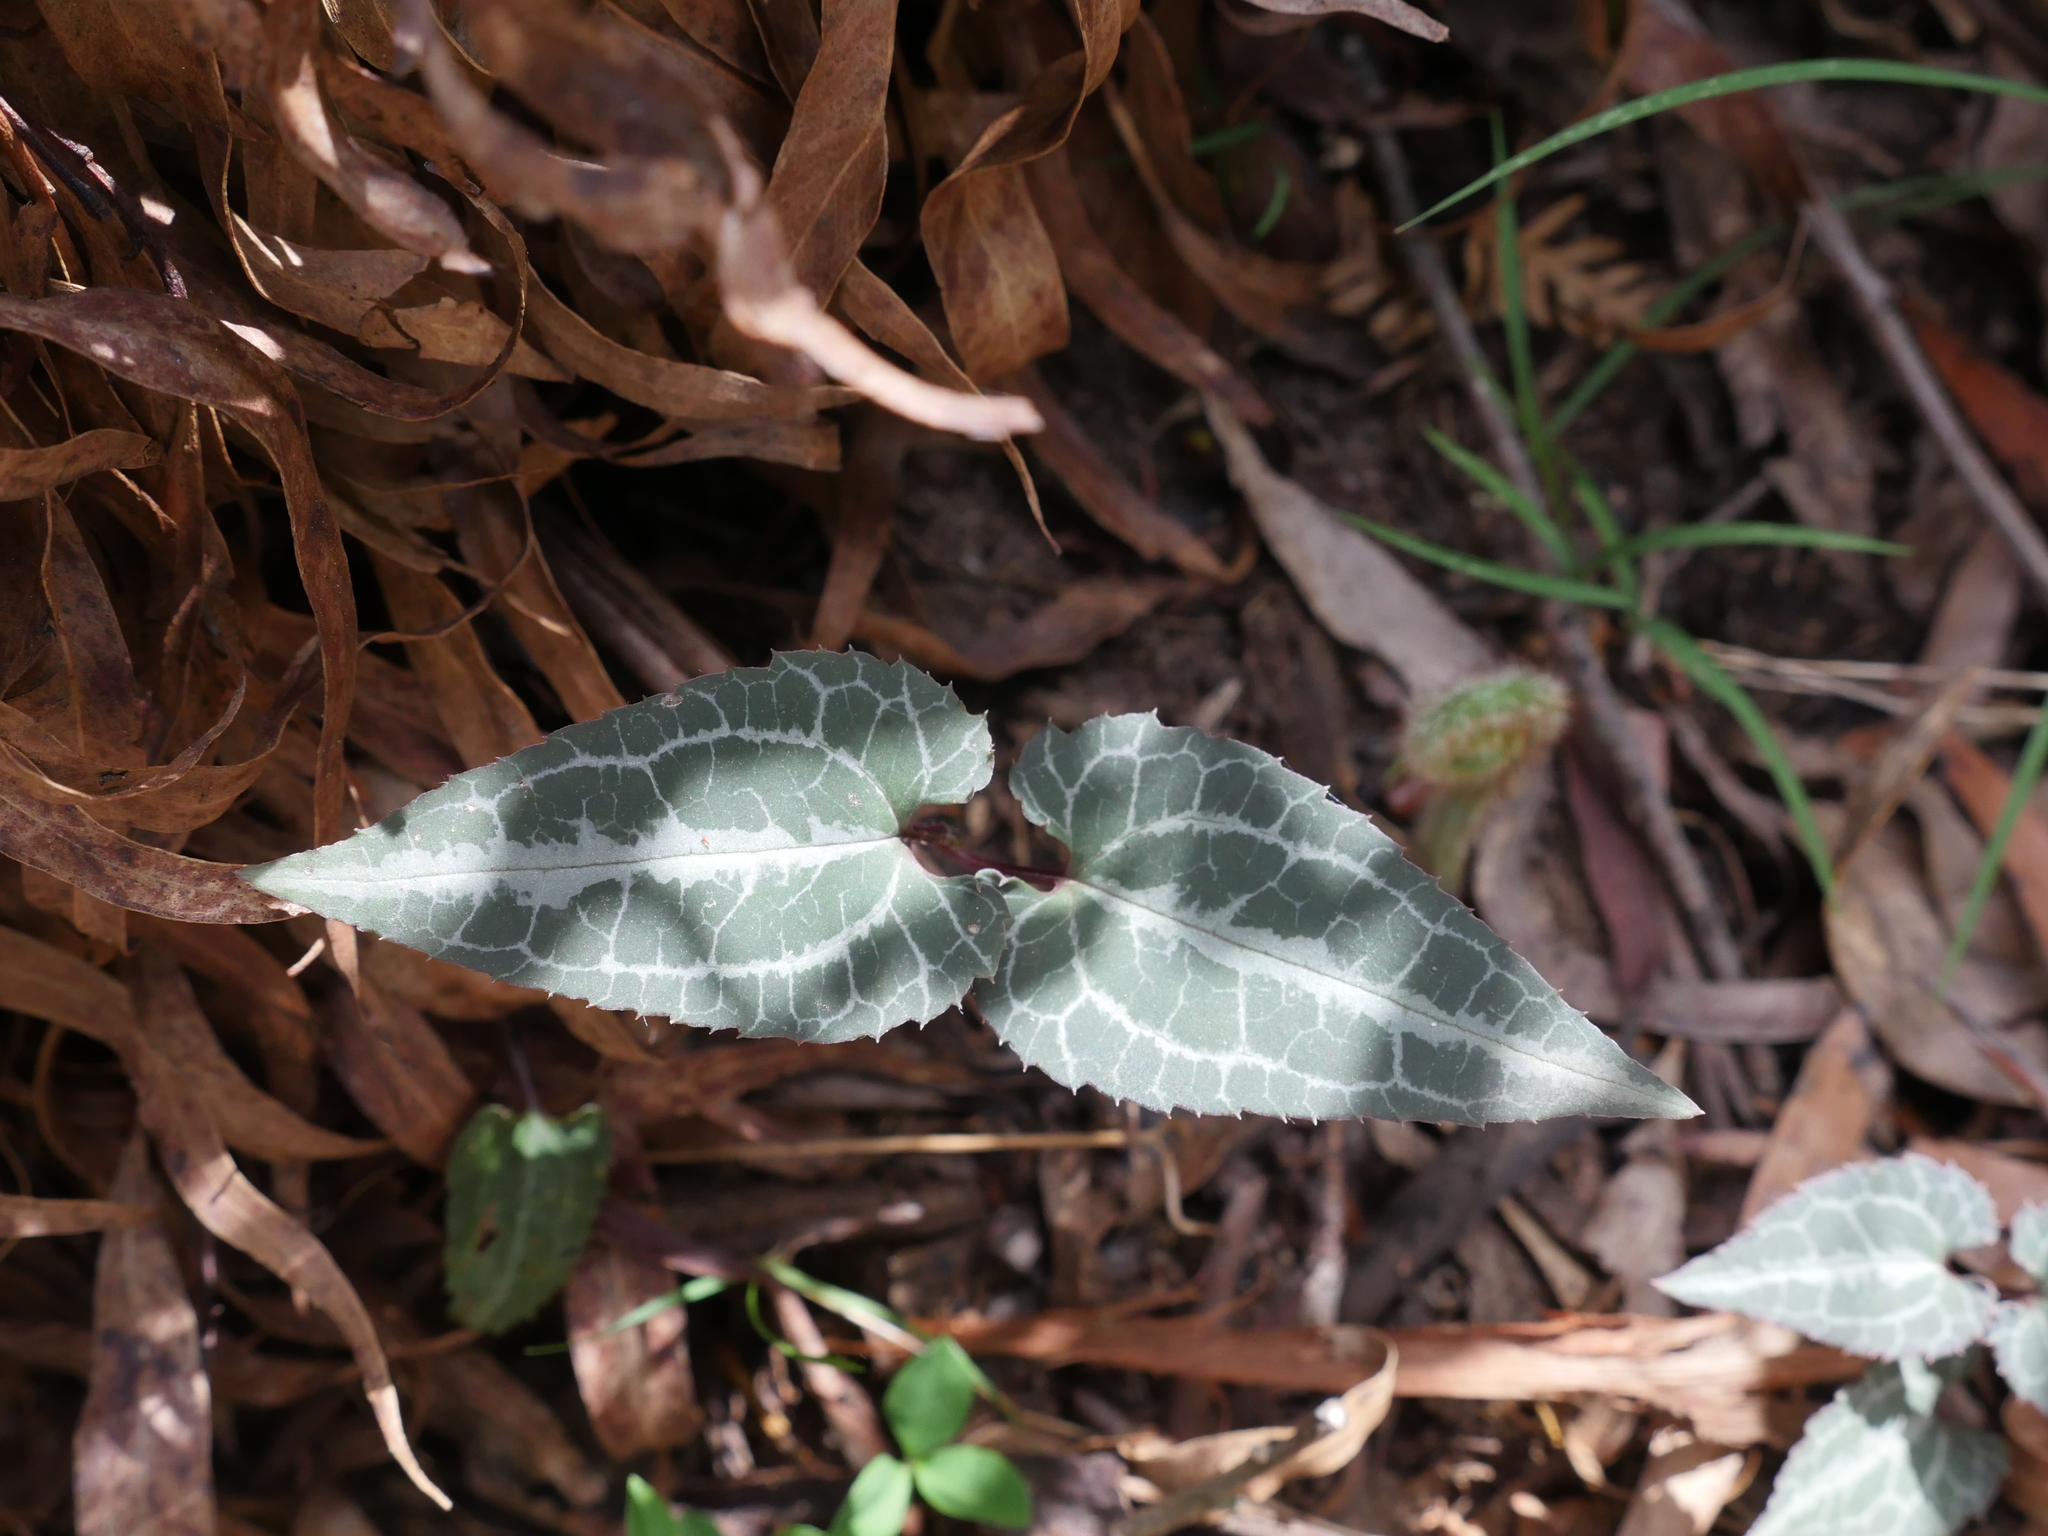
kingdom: Plantae
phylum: Tracheophyta
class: Magnoliopsida
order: Ranunculales
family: Ranunculaceae
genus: Clematis
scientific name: Clematis aristata
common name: Mountain clematis
